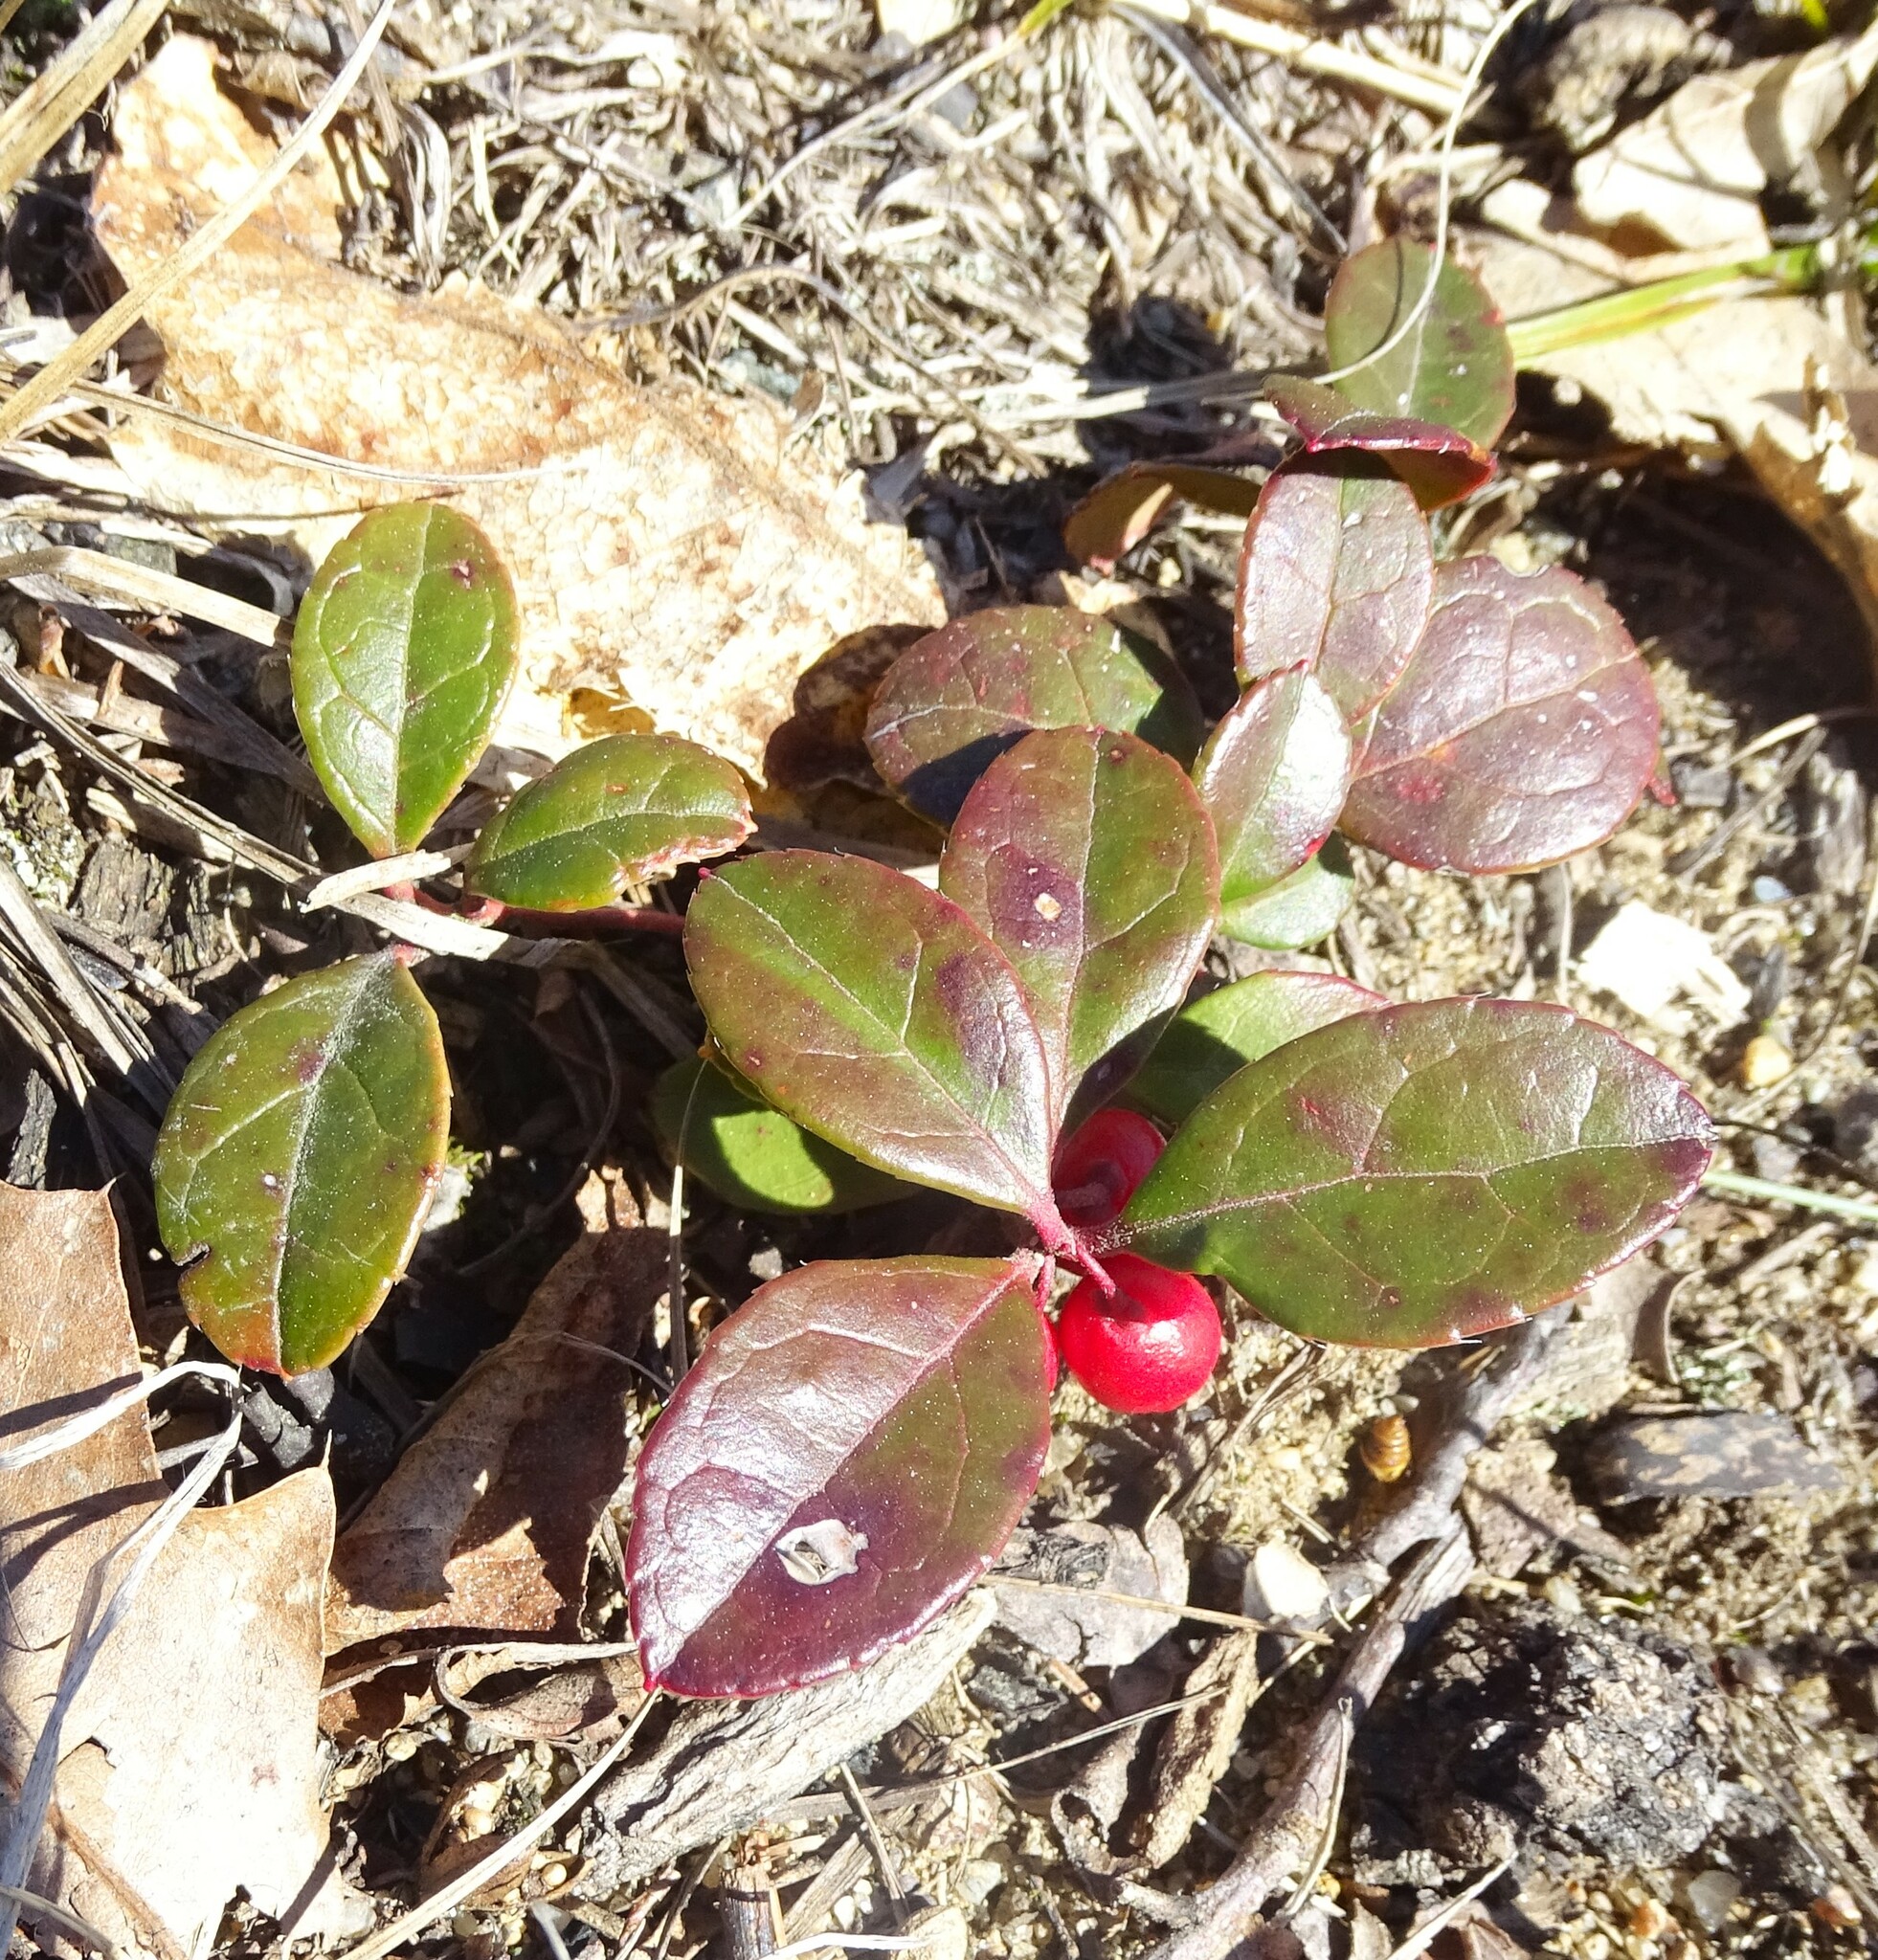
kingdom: Plantae
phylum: Tracheophyta
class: Magnoliopsida
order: Ericales
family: Ericaceae
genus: Gaultheria
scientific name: Gaultheria procumbens
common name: Checkerberry
